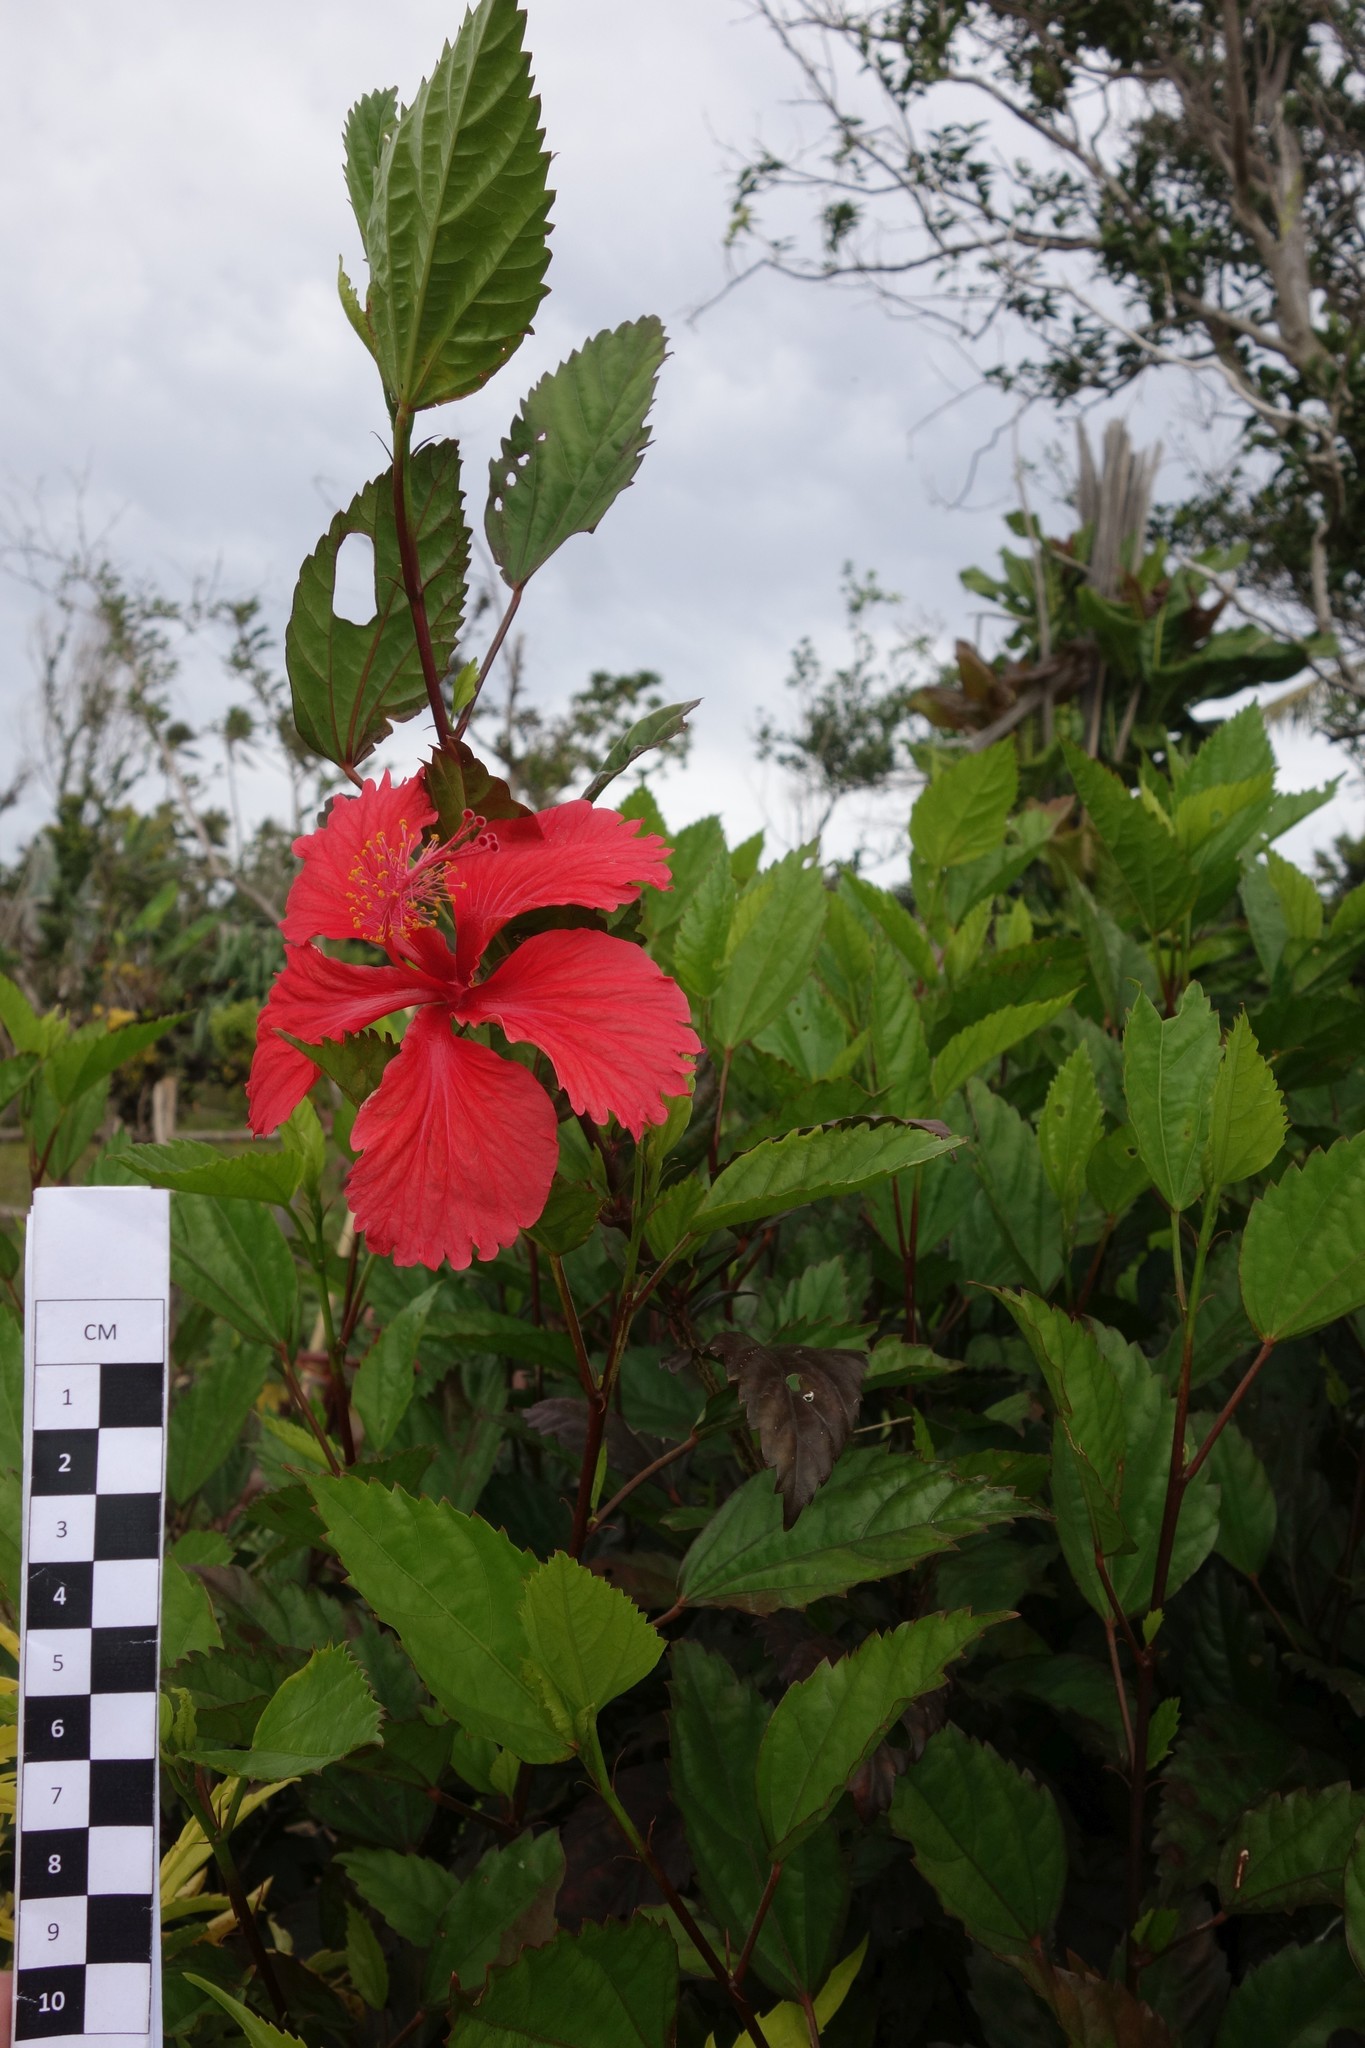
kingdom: Plantae
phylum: Tracheophyta
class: Magnoliopsida
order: Malvales
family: Malvaceae
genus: Hibiscus
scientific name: Hibiscus archeri
